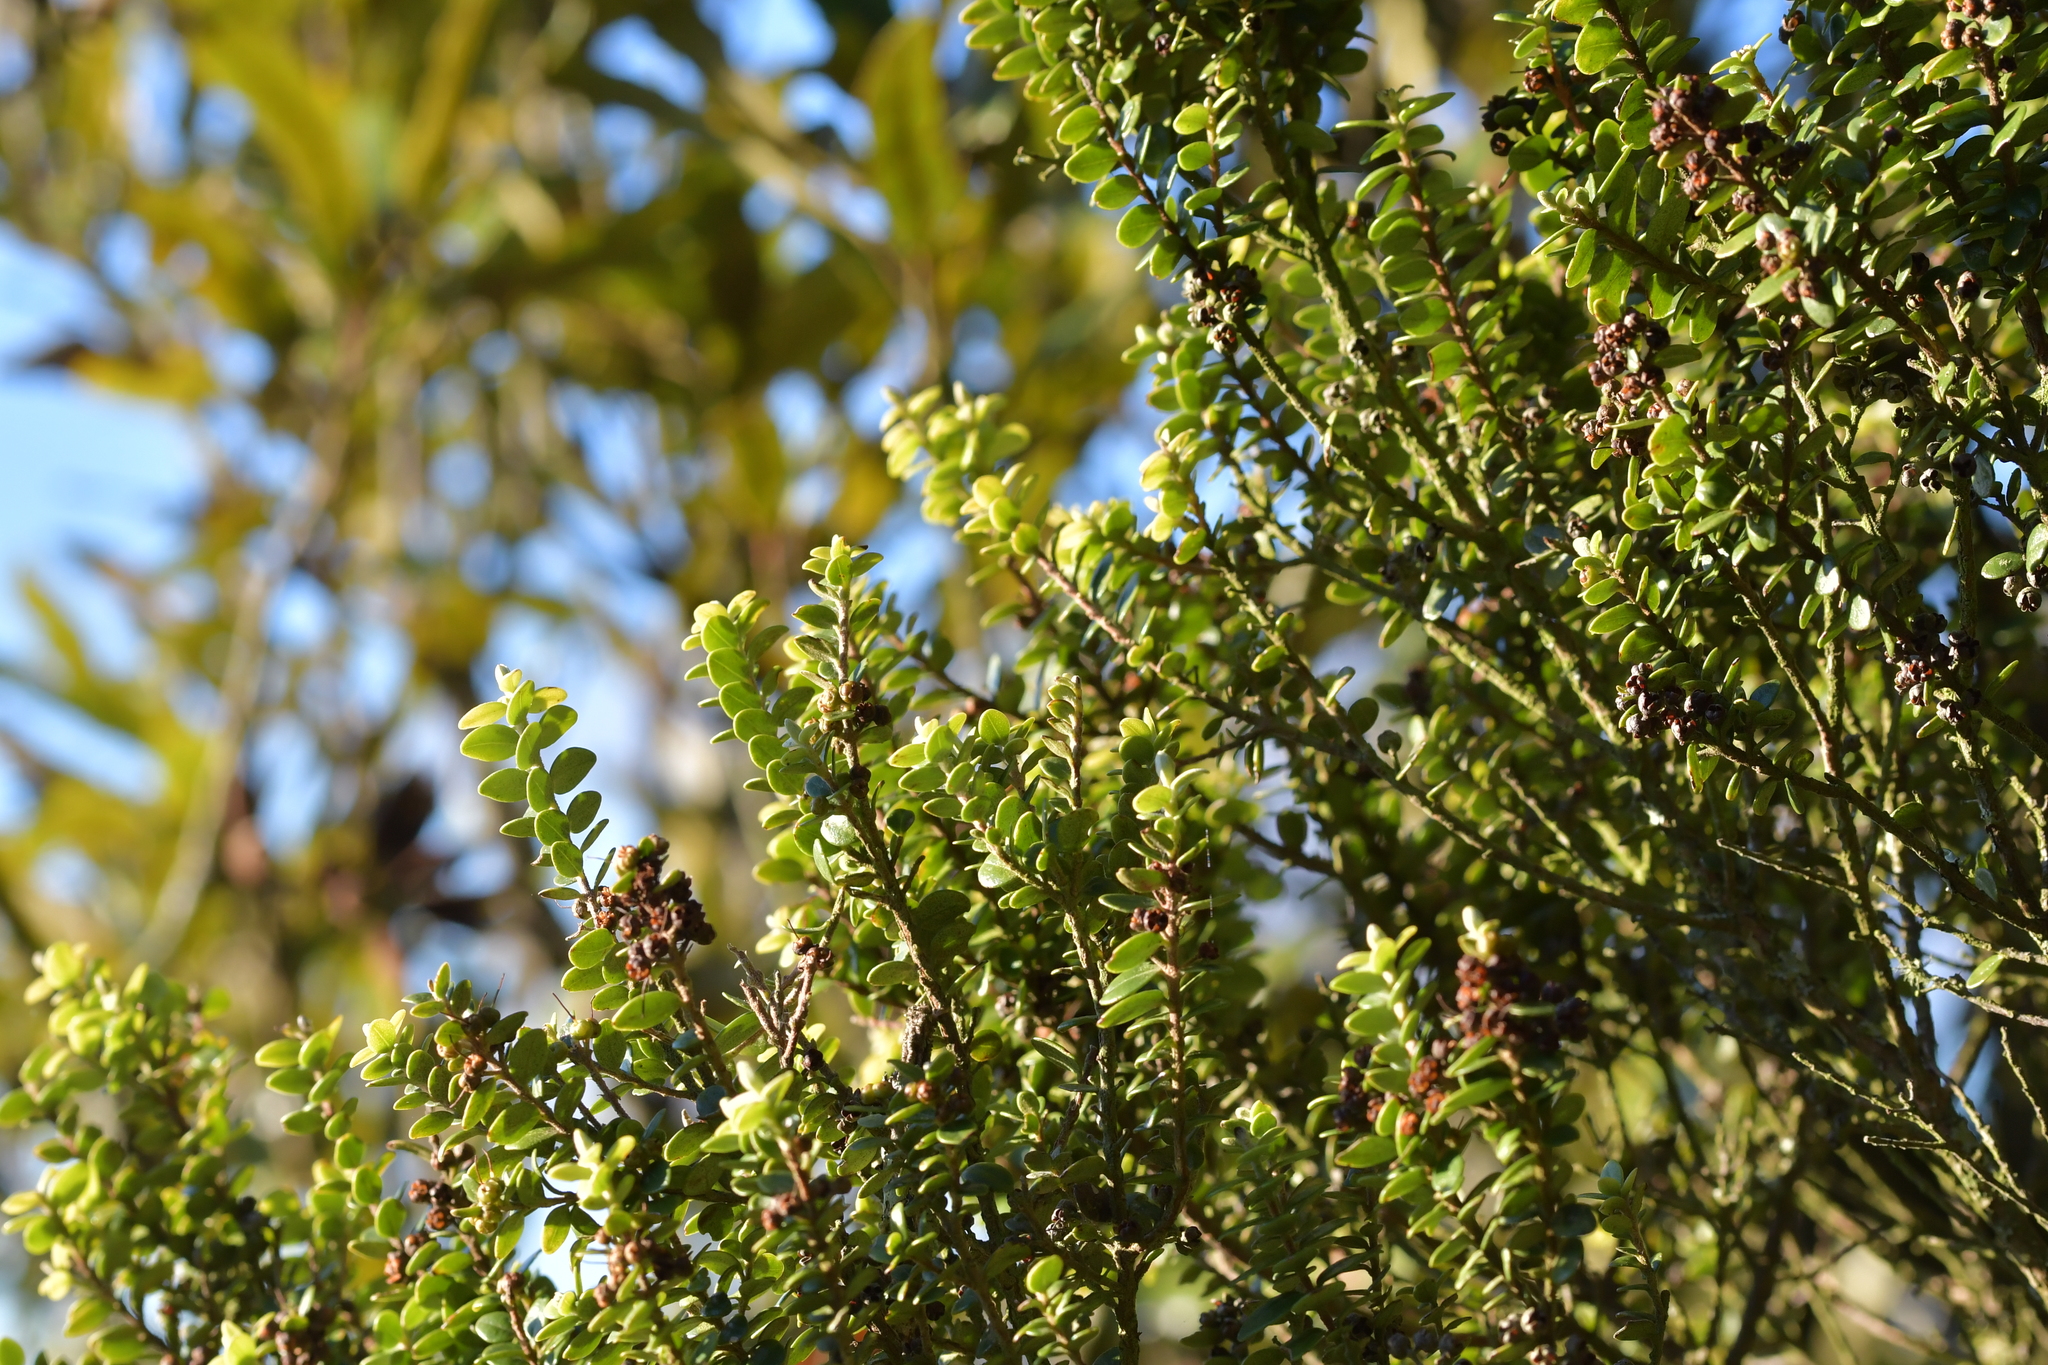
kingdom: Plantae
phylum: Tracheophyta
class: Magnoliopsida
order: Myrtales
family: Myrtaceae
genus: Metrosideros
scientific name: Metrosideros perforata
